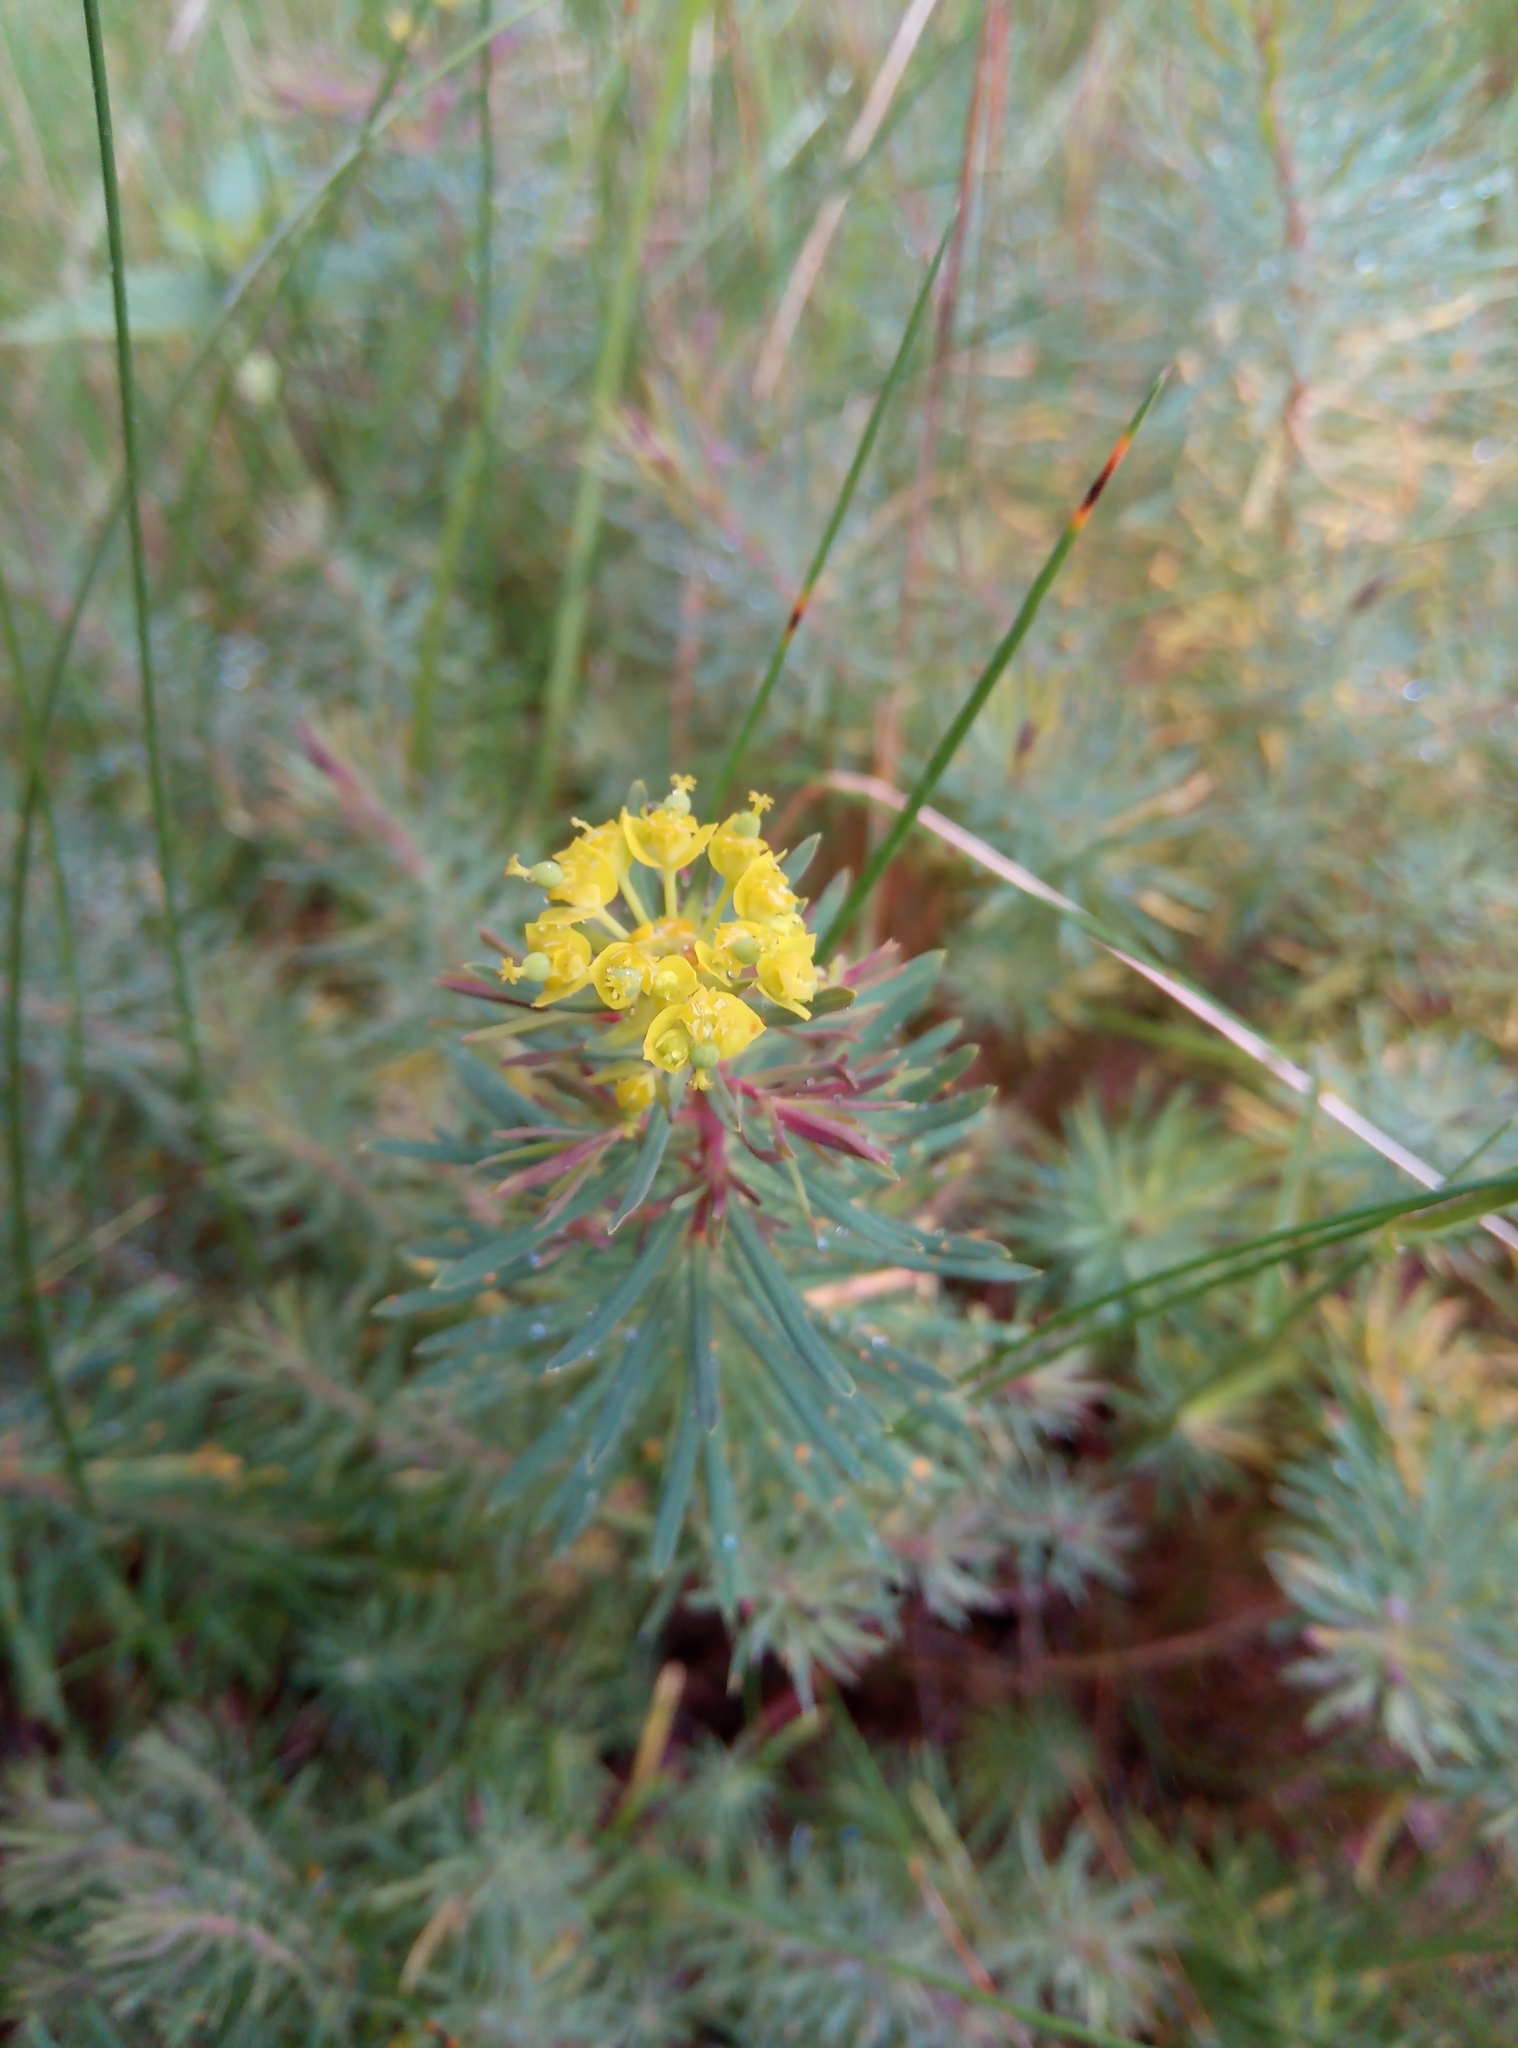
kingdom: Plantae
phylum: Tracheophyta
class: Magnoliopsida
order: Malpighiales
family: Euphorbiaceae
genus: Euphorbia
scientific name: Euphorbia cyparissias
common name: Cypress spurge
